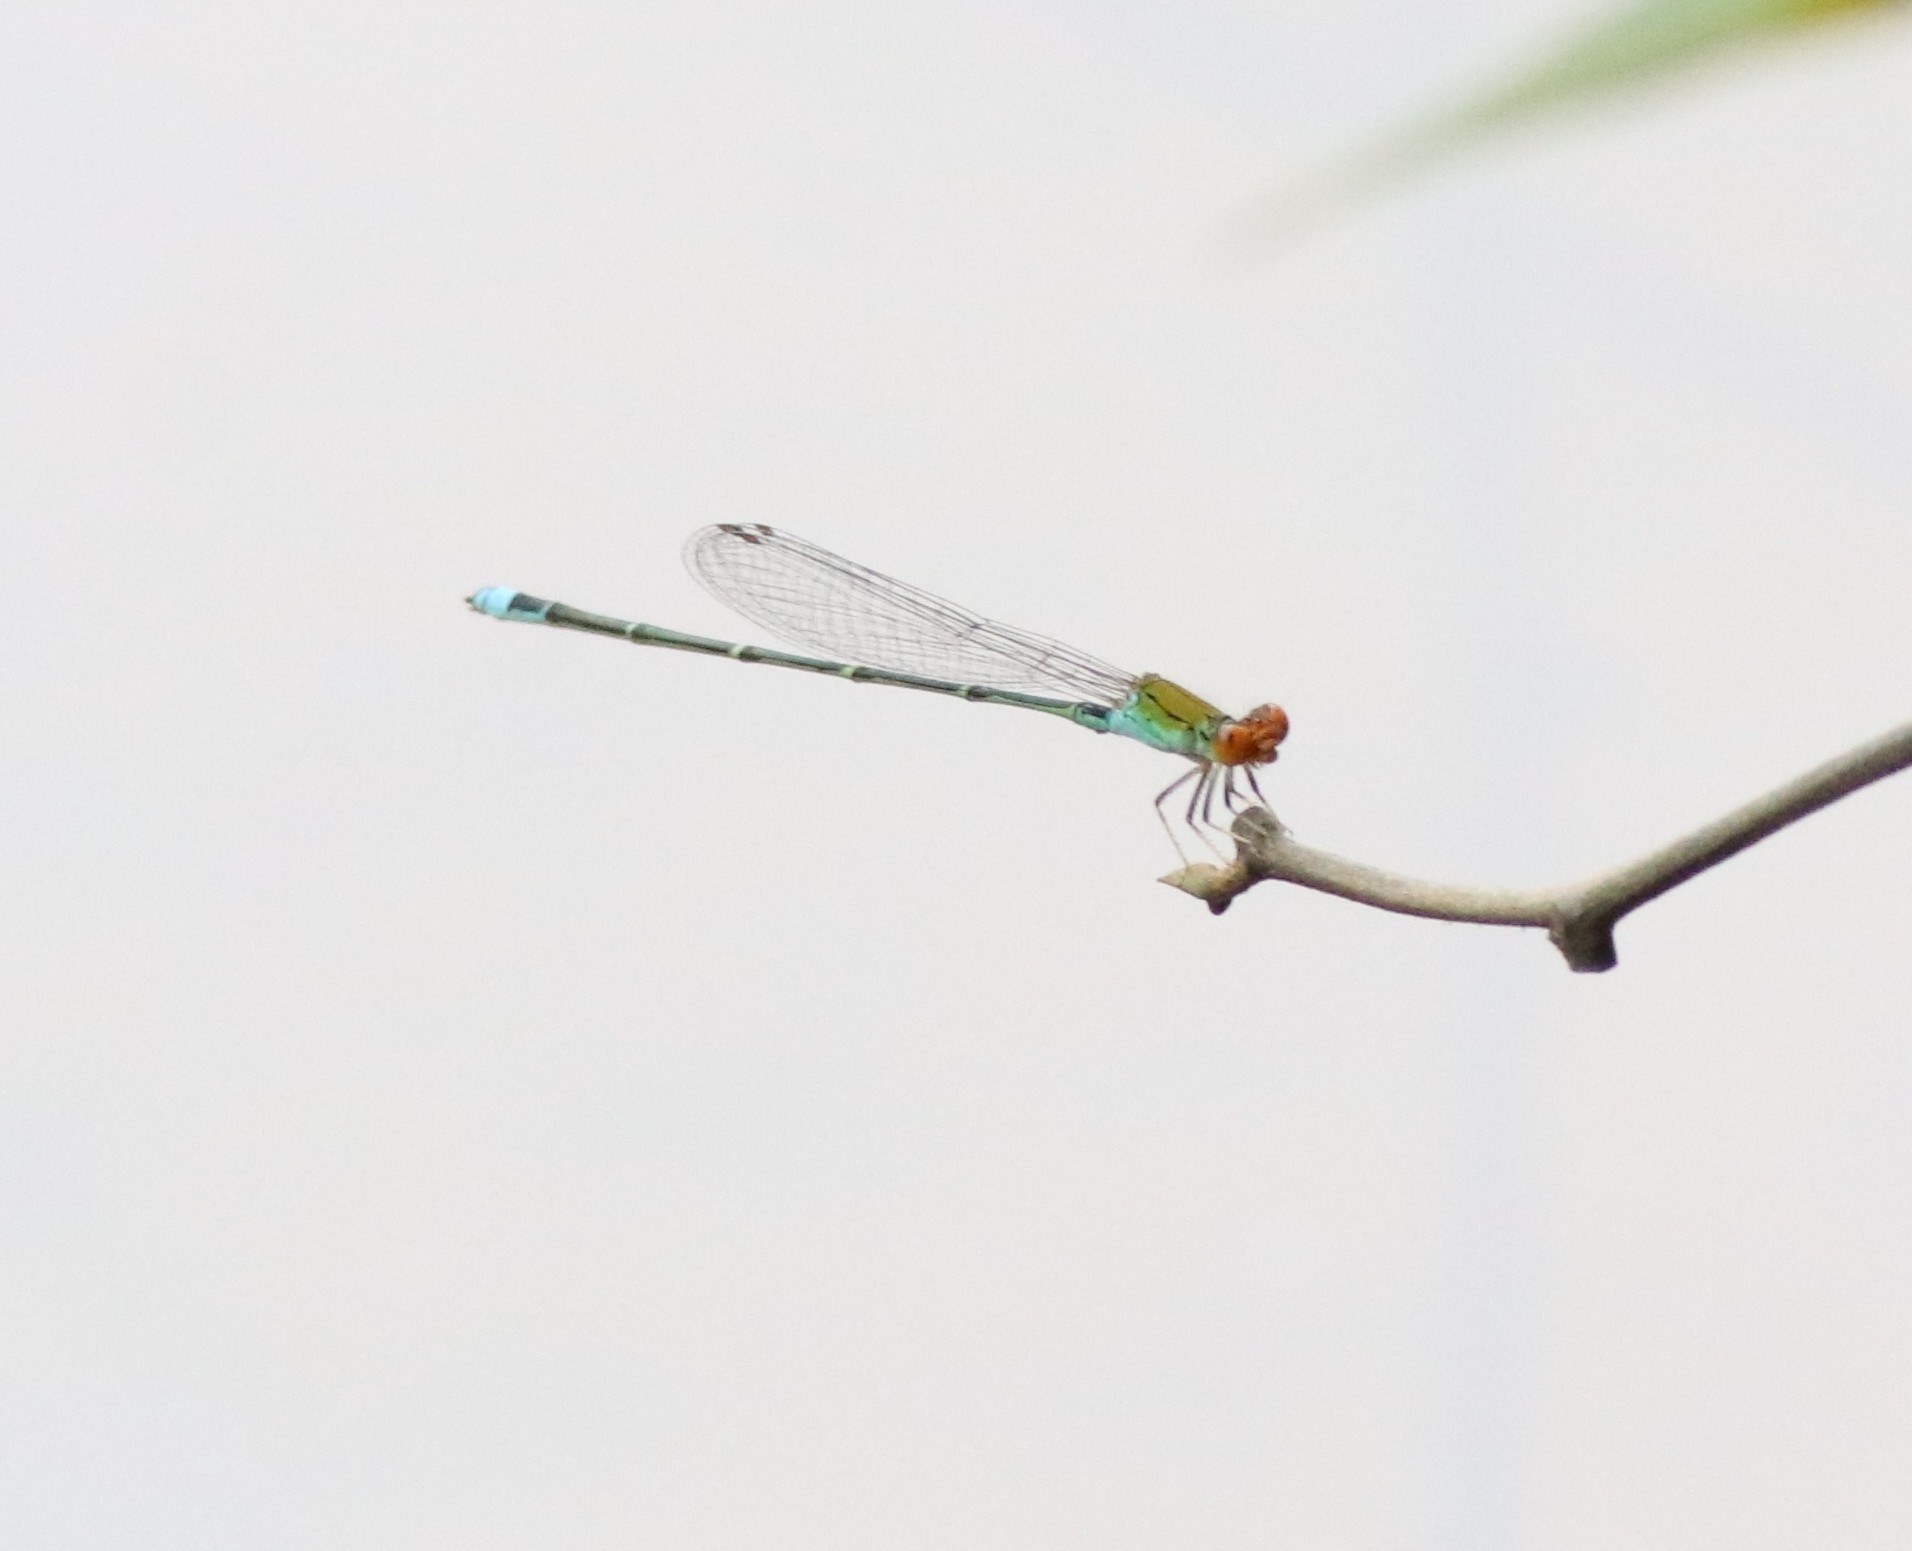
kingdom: Animalia
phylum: Arthropoda
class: Insecta
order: Odonata
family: Coenagrionidae
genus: Pseudagrion
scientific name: Pseudagrion rubriceps
